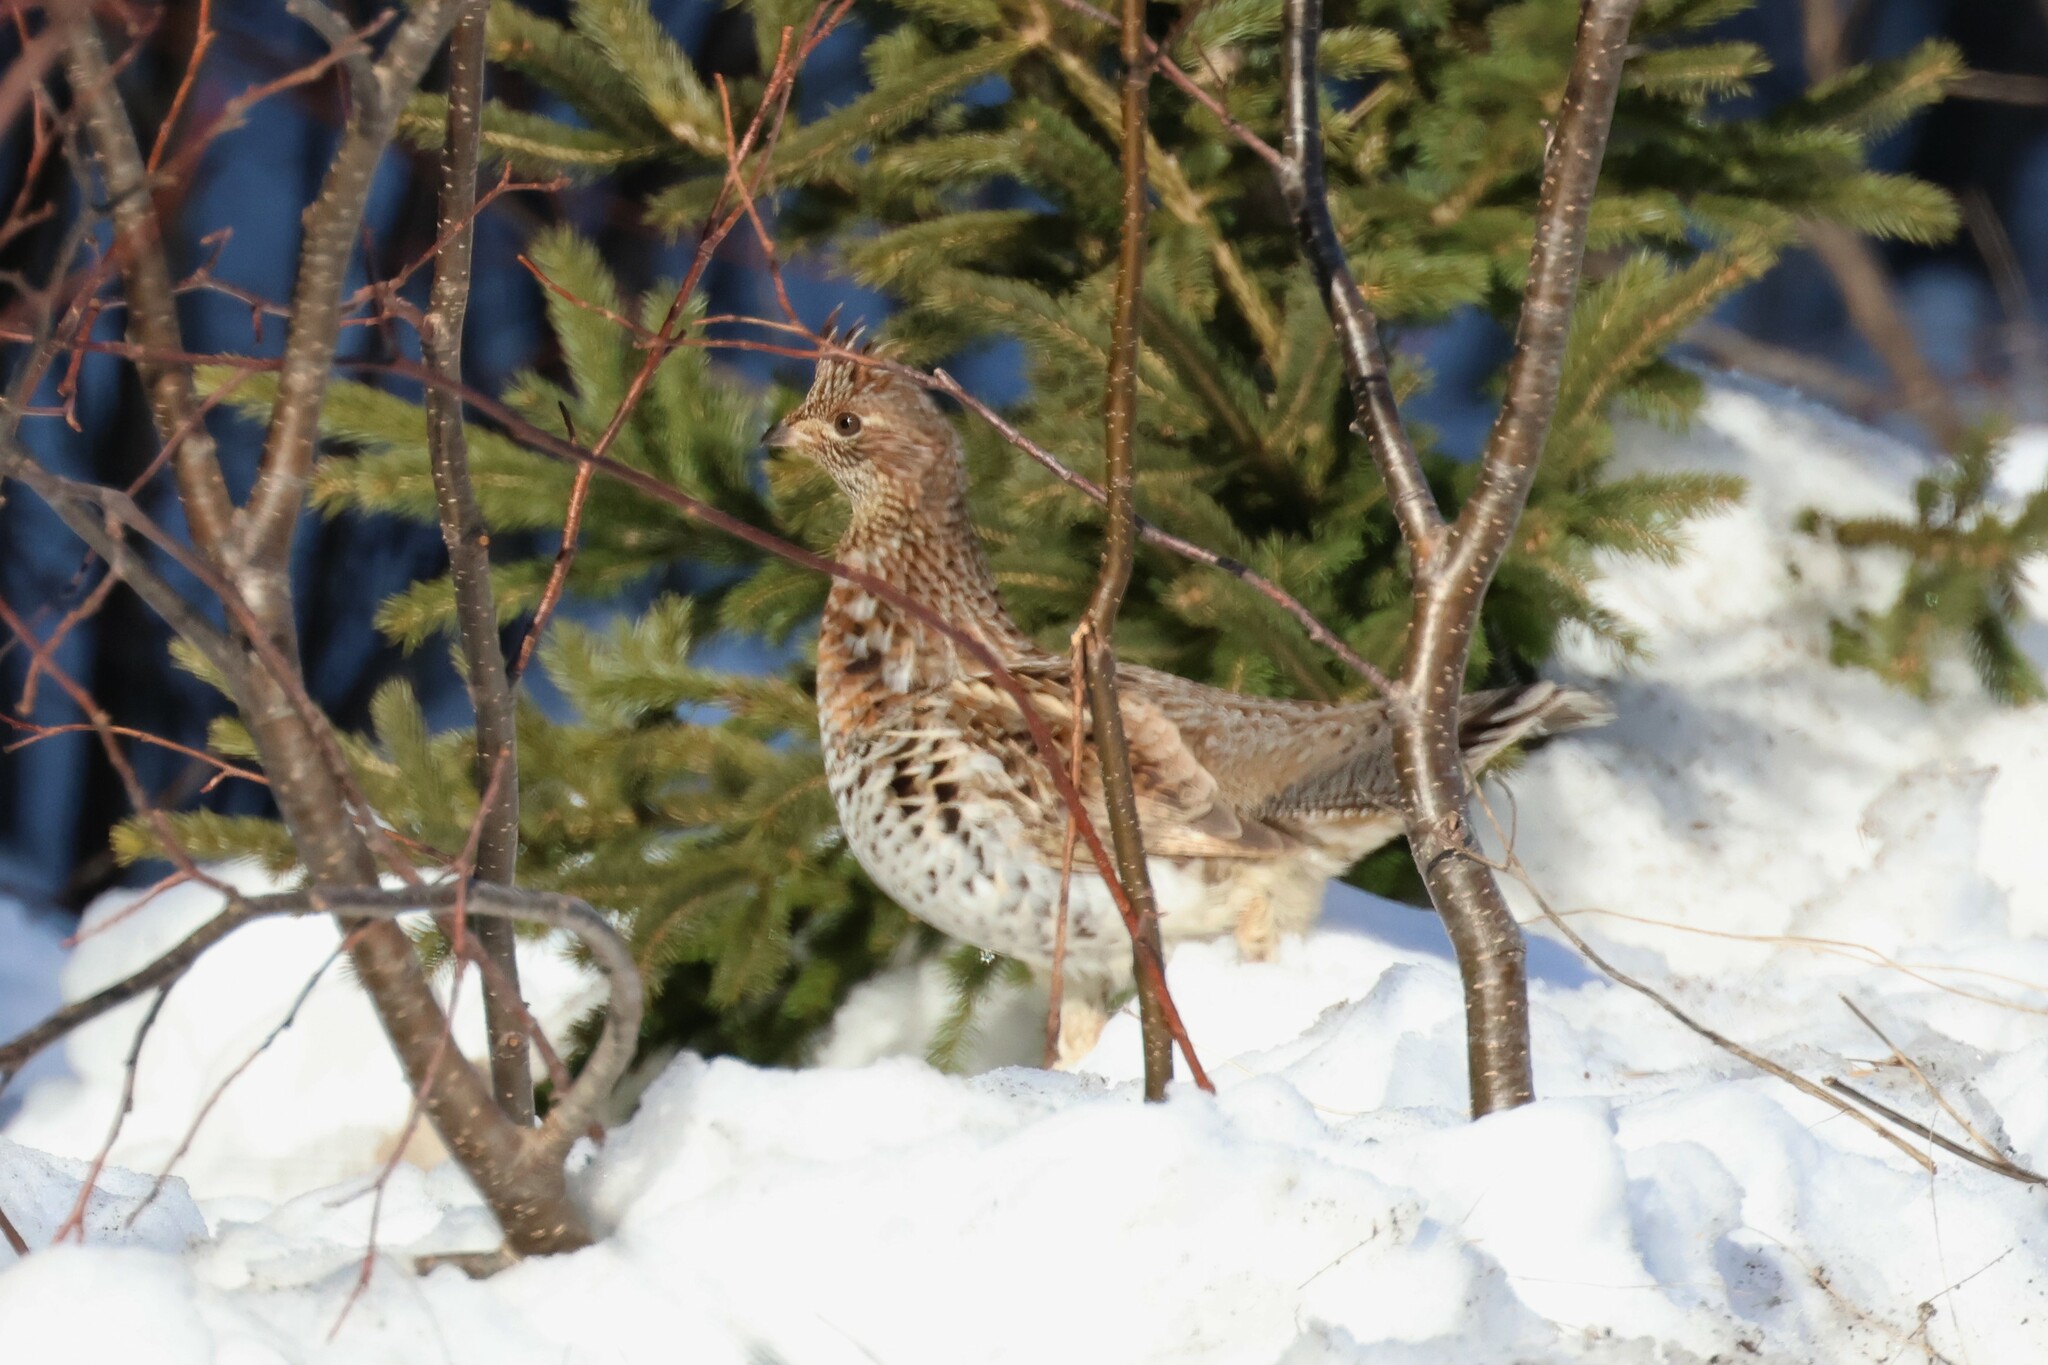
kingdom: Animalia
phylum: Chordata
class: Aves
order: Galliformes
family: Phasianidae
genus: Bonasa
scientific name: Bonasa umbellus
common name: Ruffed grouse
